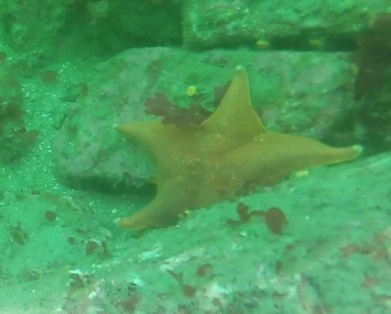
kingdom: Animalia
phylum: Echinodermata
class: Asteroidea
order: Valvatida
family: Asterinidae
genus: Patiria
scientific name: Patiria miniata
